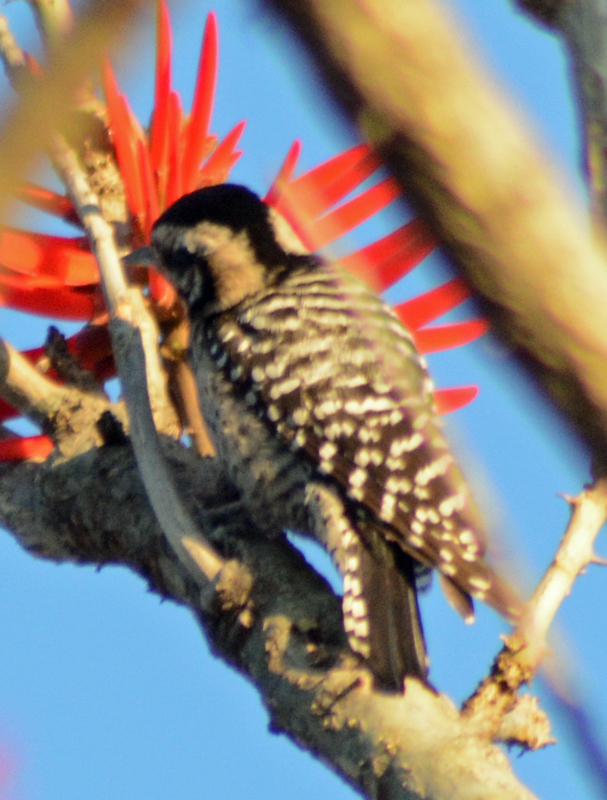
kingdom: Animalia
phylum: Chordata
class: Aves
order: Piciformes
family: Picidae
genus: Dryobates
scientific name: Dryobates scalaris
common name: Ladder-backed woodpecker
